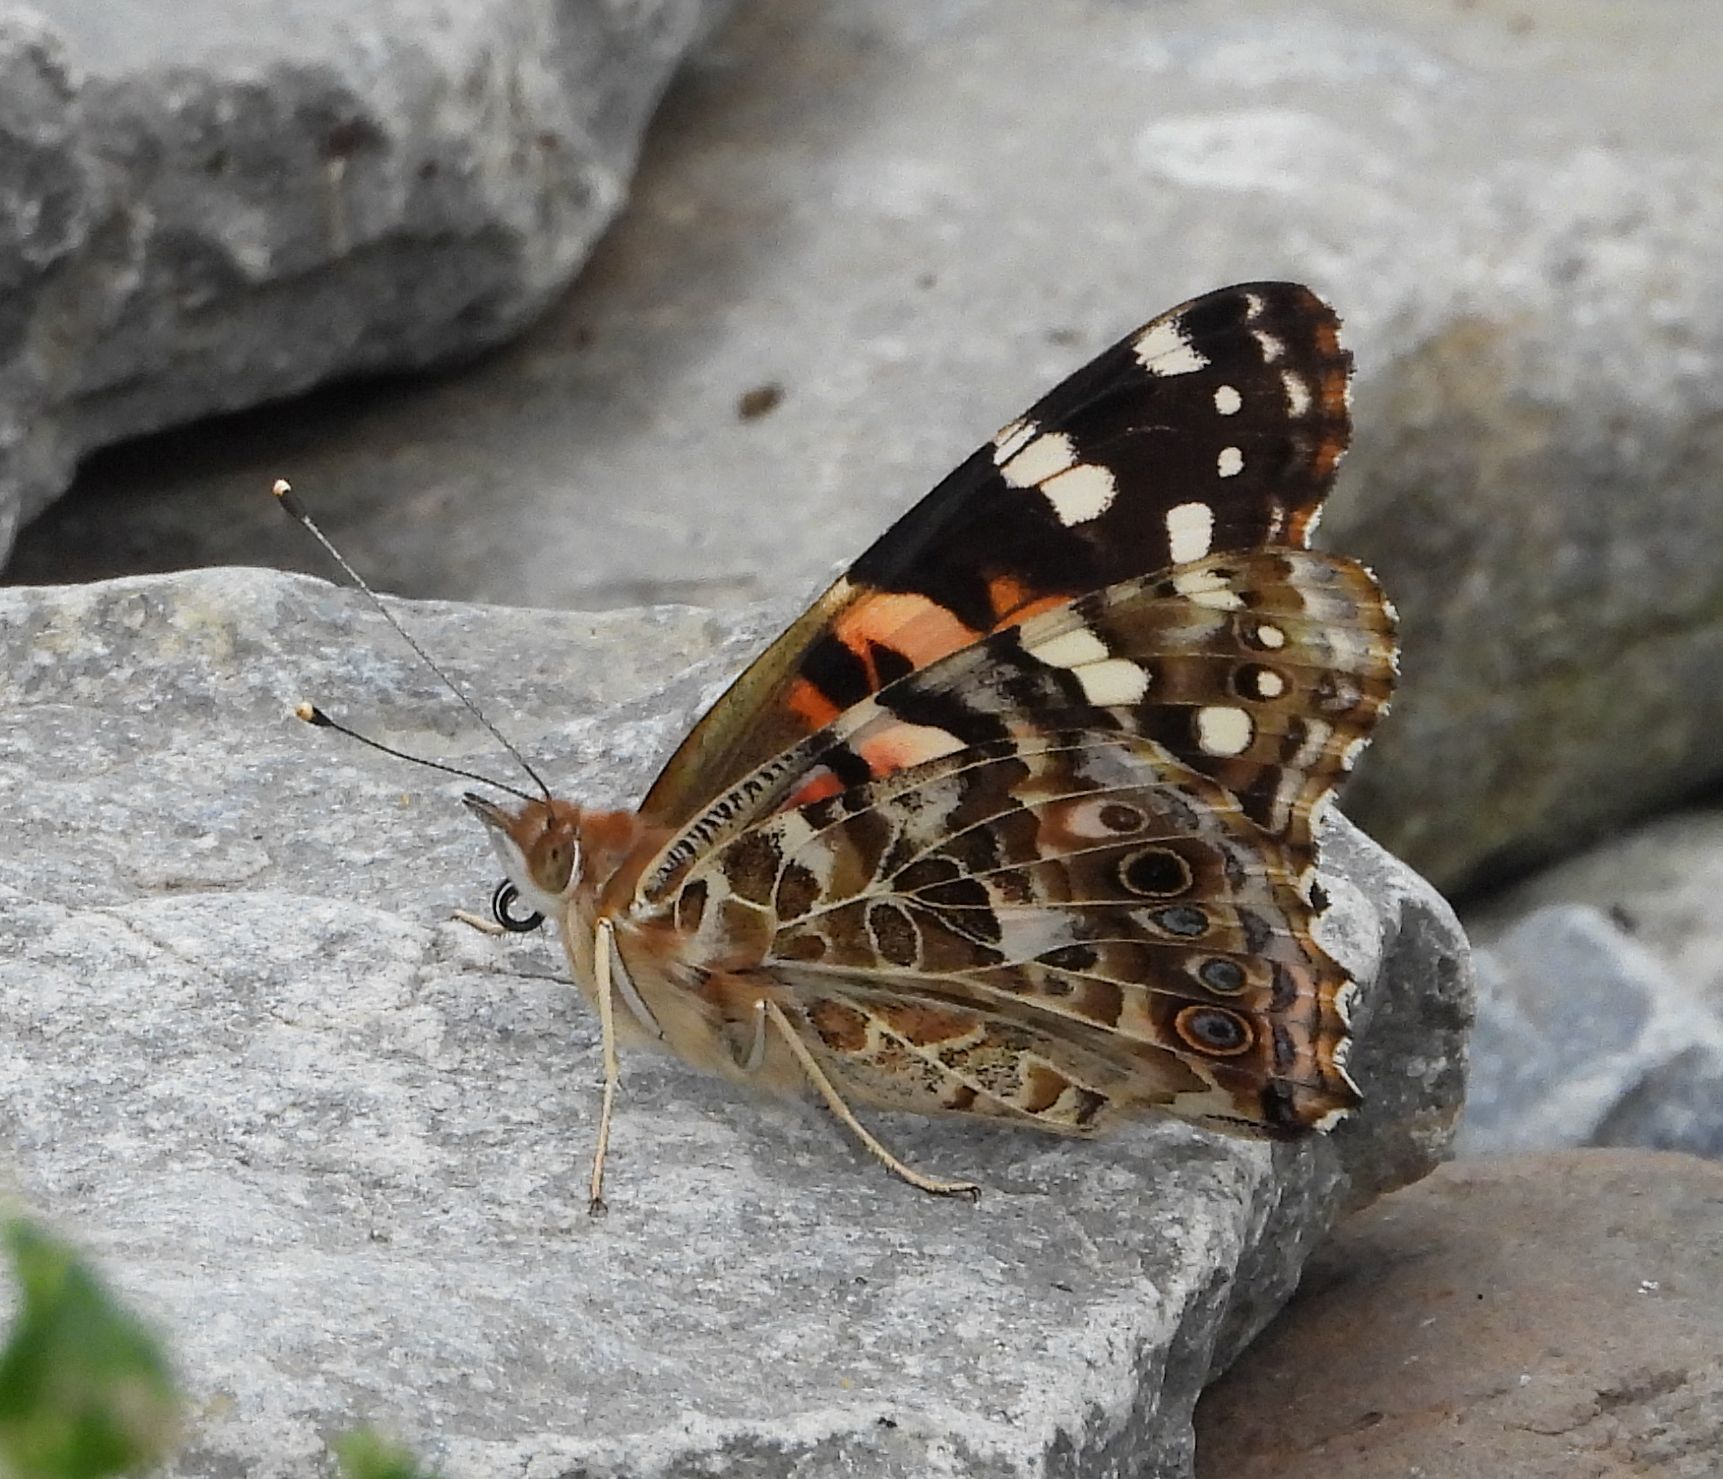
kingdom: Animalia
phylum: Arthropoda
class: Insecta
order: Lepidoptera
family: Nymphalidae
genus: Vanessa
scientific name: Vanessa cardui
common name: Painted lady
